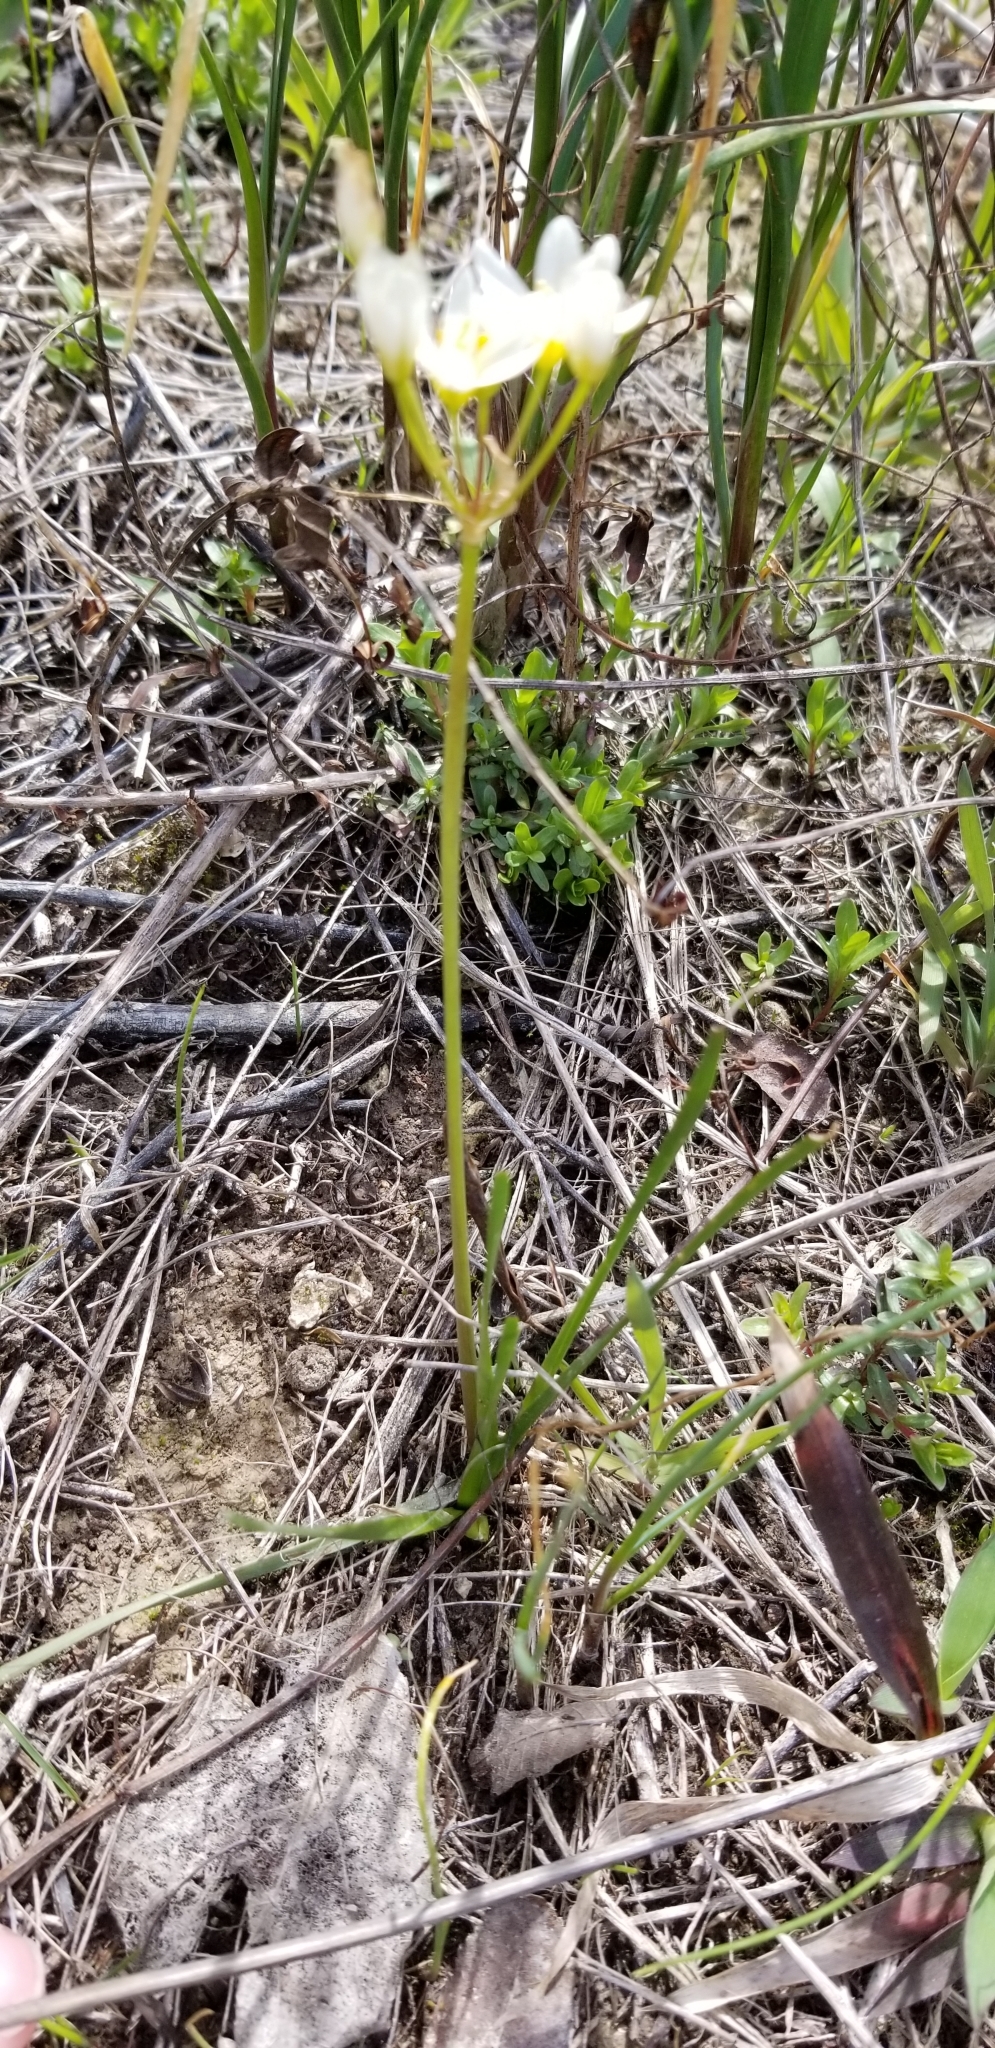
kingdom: Plantae
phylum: Tracheophyta
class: Liliopsida
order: Asparagales
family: Amaryllidaceae
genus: Nothoscordum
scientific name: Nothoscordum bivalve
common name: Crow-poison
